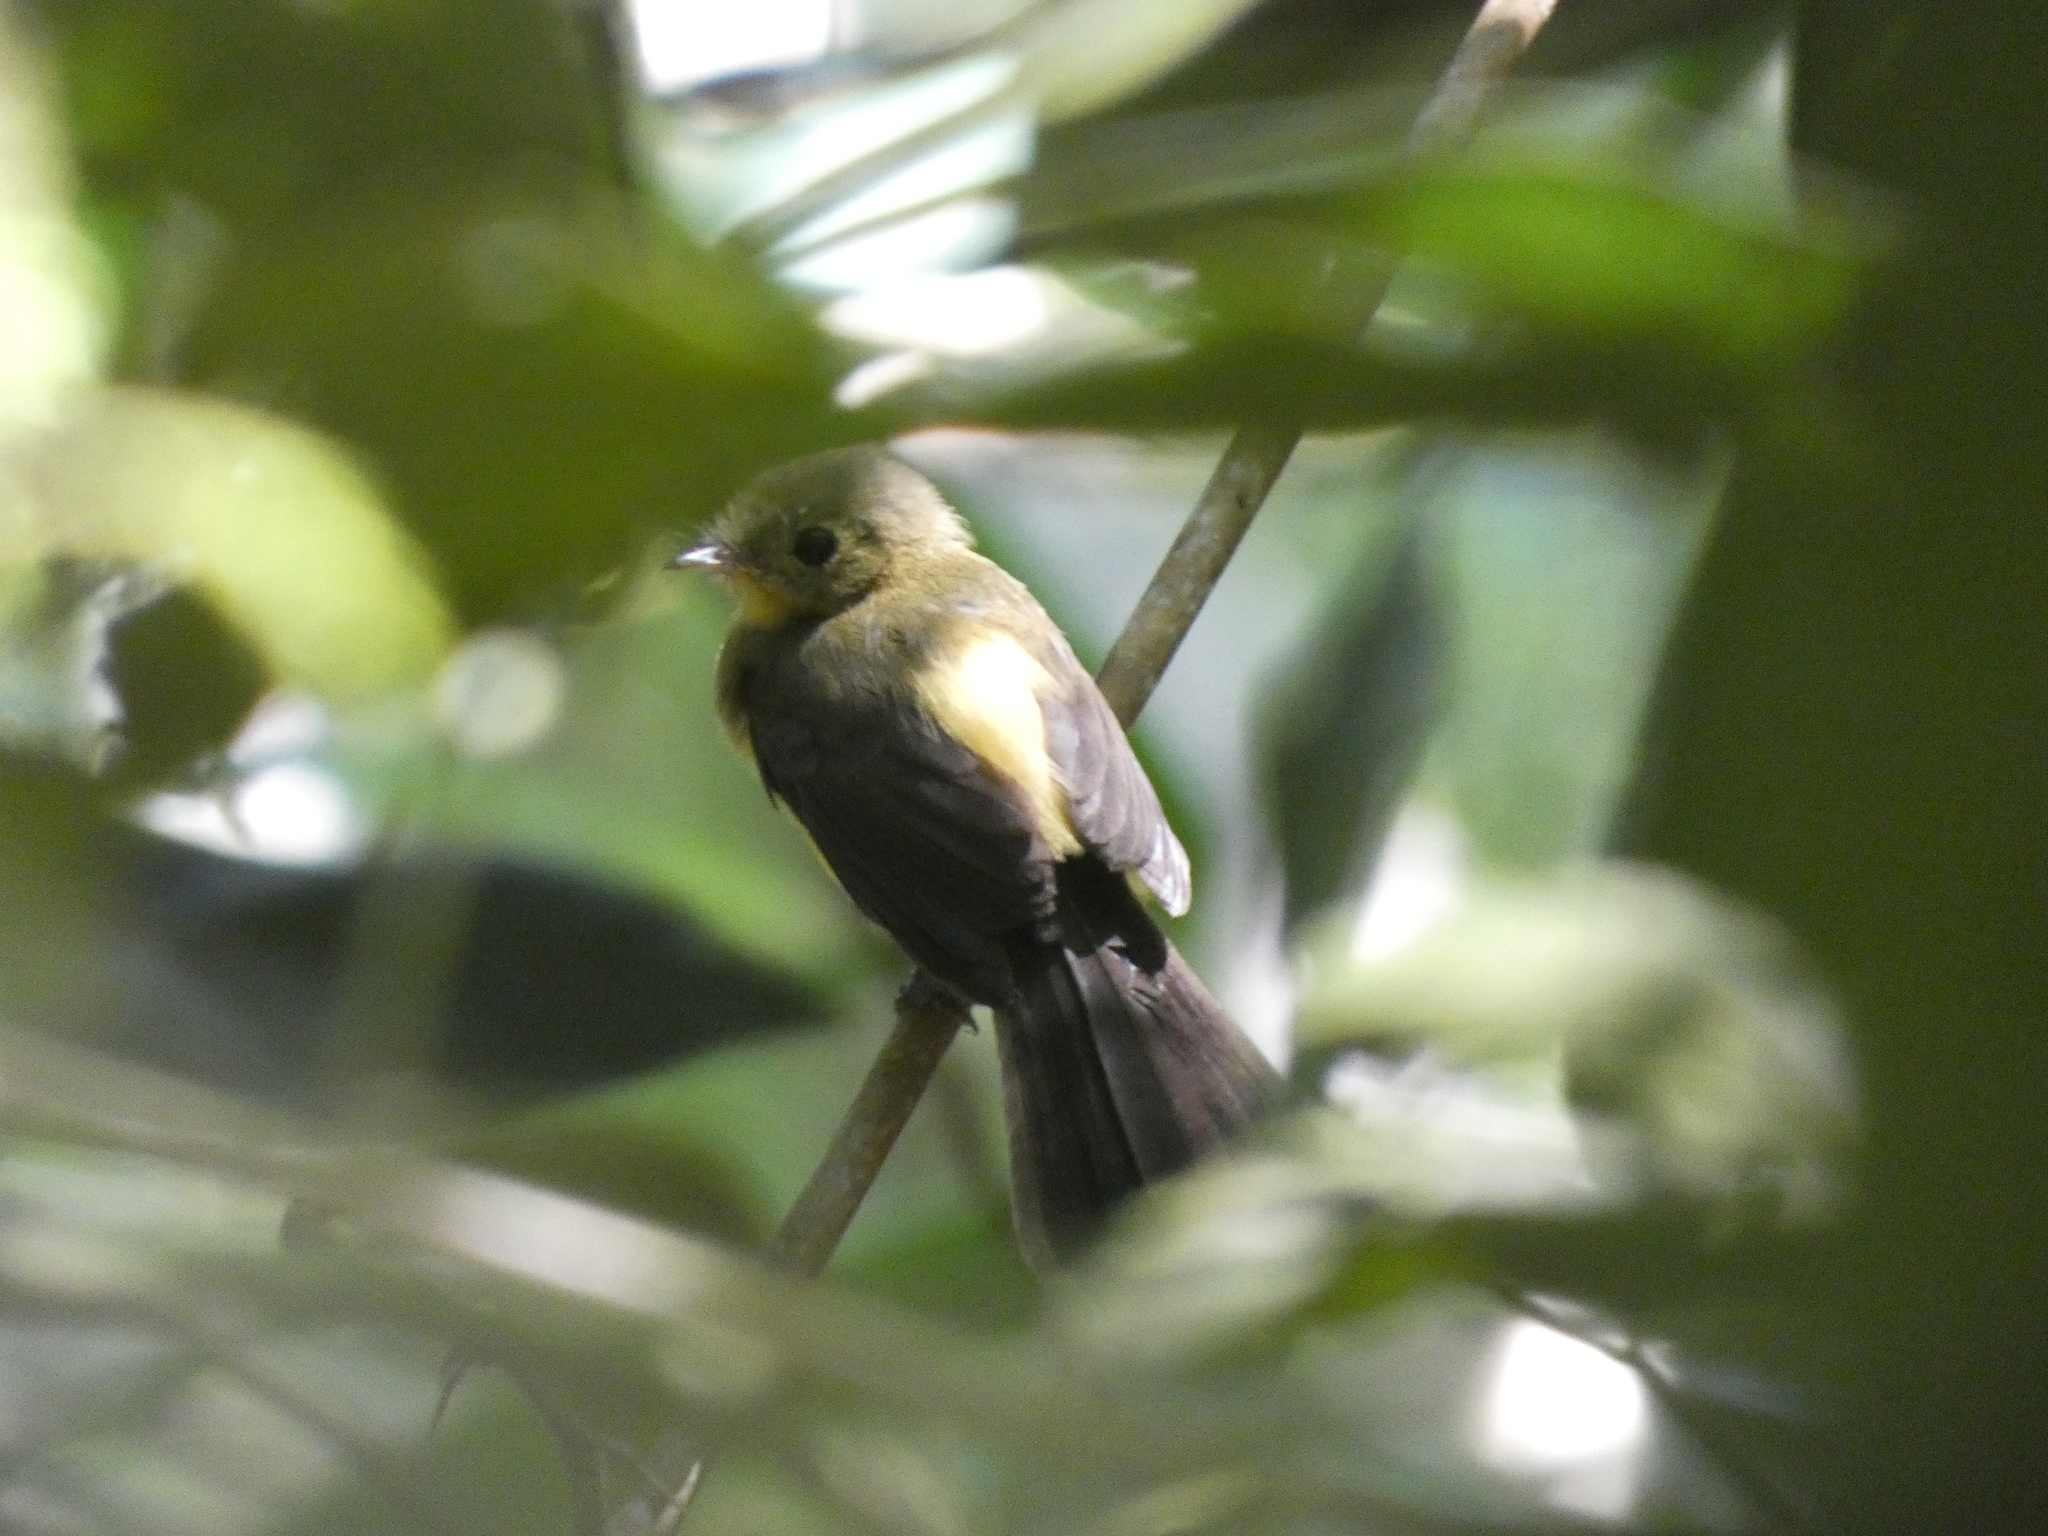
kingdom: Animalia
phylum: Chordata
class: Aves
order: Passeriformes
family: Tyrannidae
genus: Myiobius
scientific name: Myiobius atricaudus
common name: Black-tailed flycatcher
